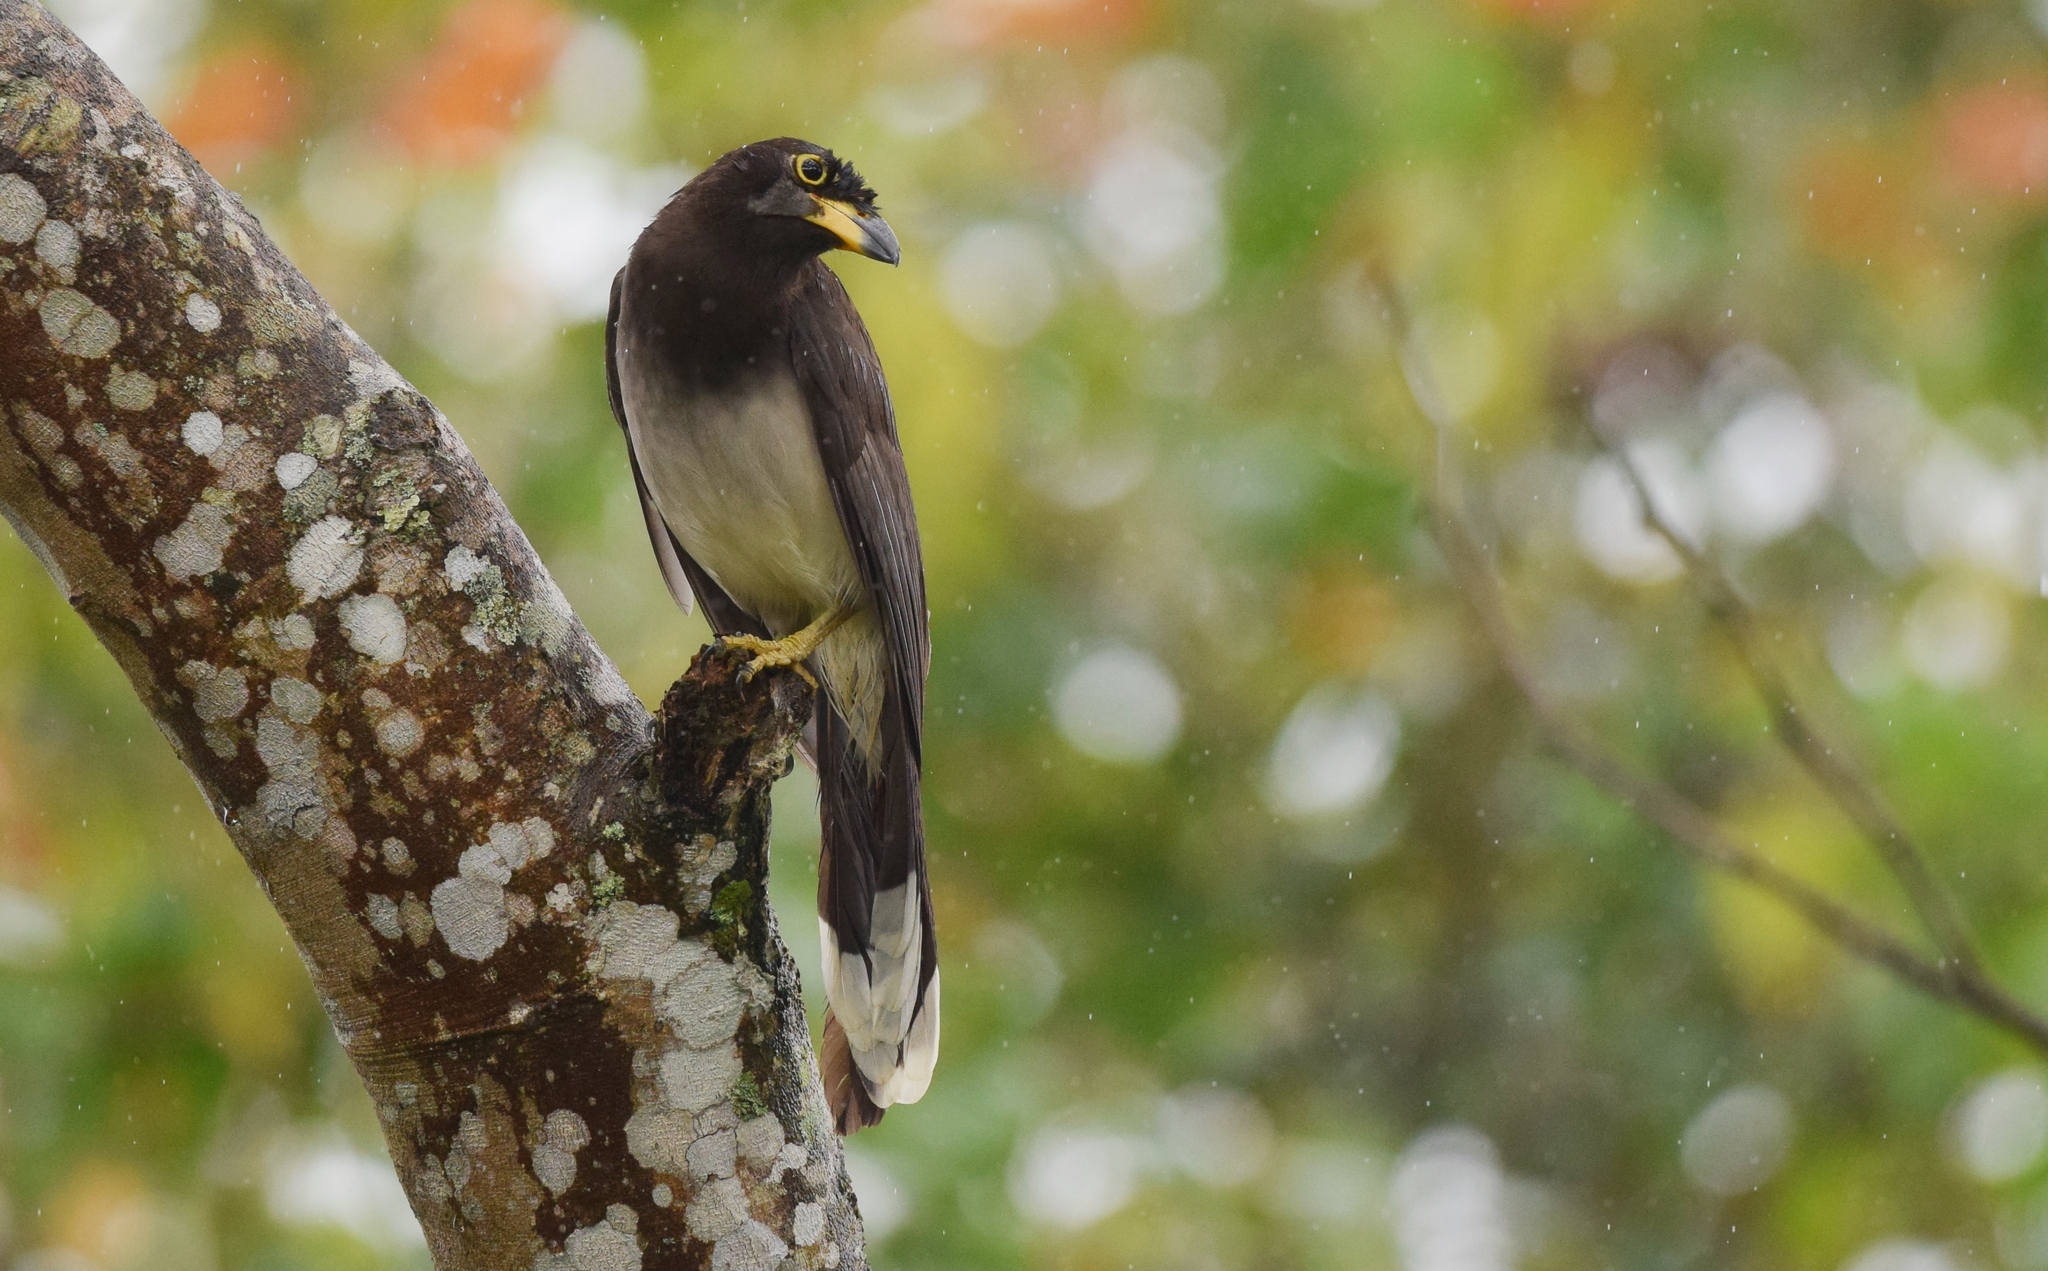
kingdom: Animalia
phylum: Chordata
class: Aves
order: Passeriformes
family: Corvidae
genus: Psilorhinus
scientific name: Psilorhinus morio
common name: Brown jay
